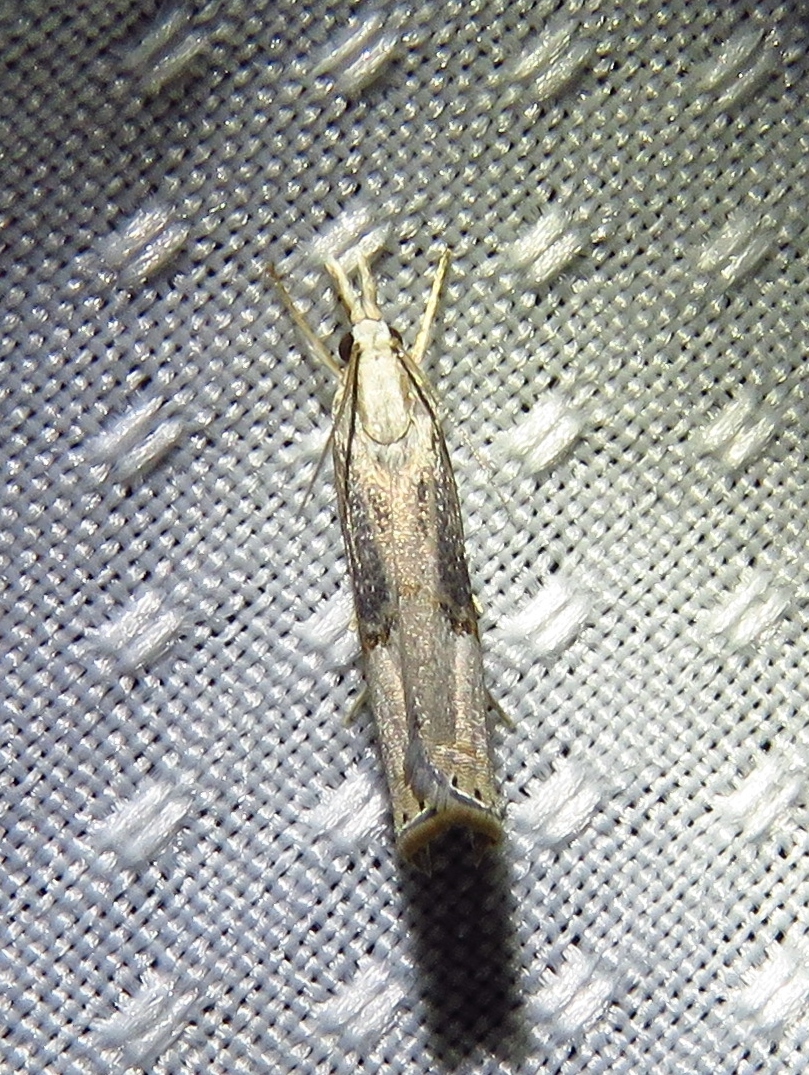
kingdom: Animalia
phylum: Arthropoda
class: Insecta
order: Lepidoptera
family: Crambidae
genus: Parapediasia
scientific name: Parapediasia teterellus
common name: Bluegrass webworm moth
